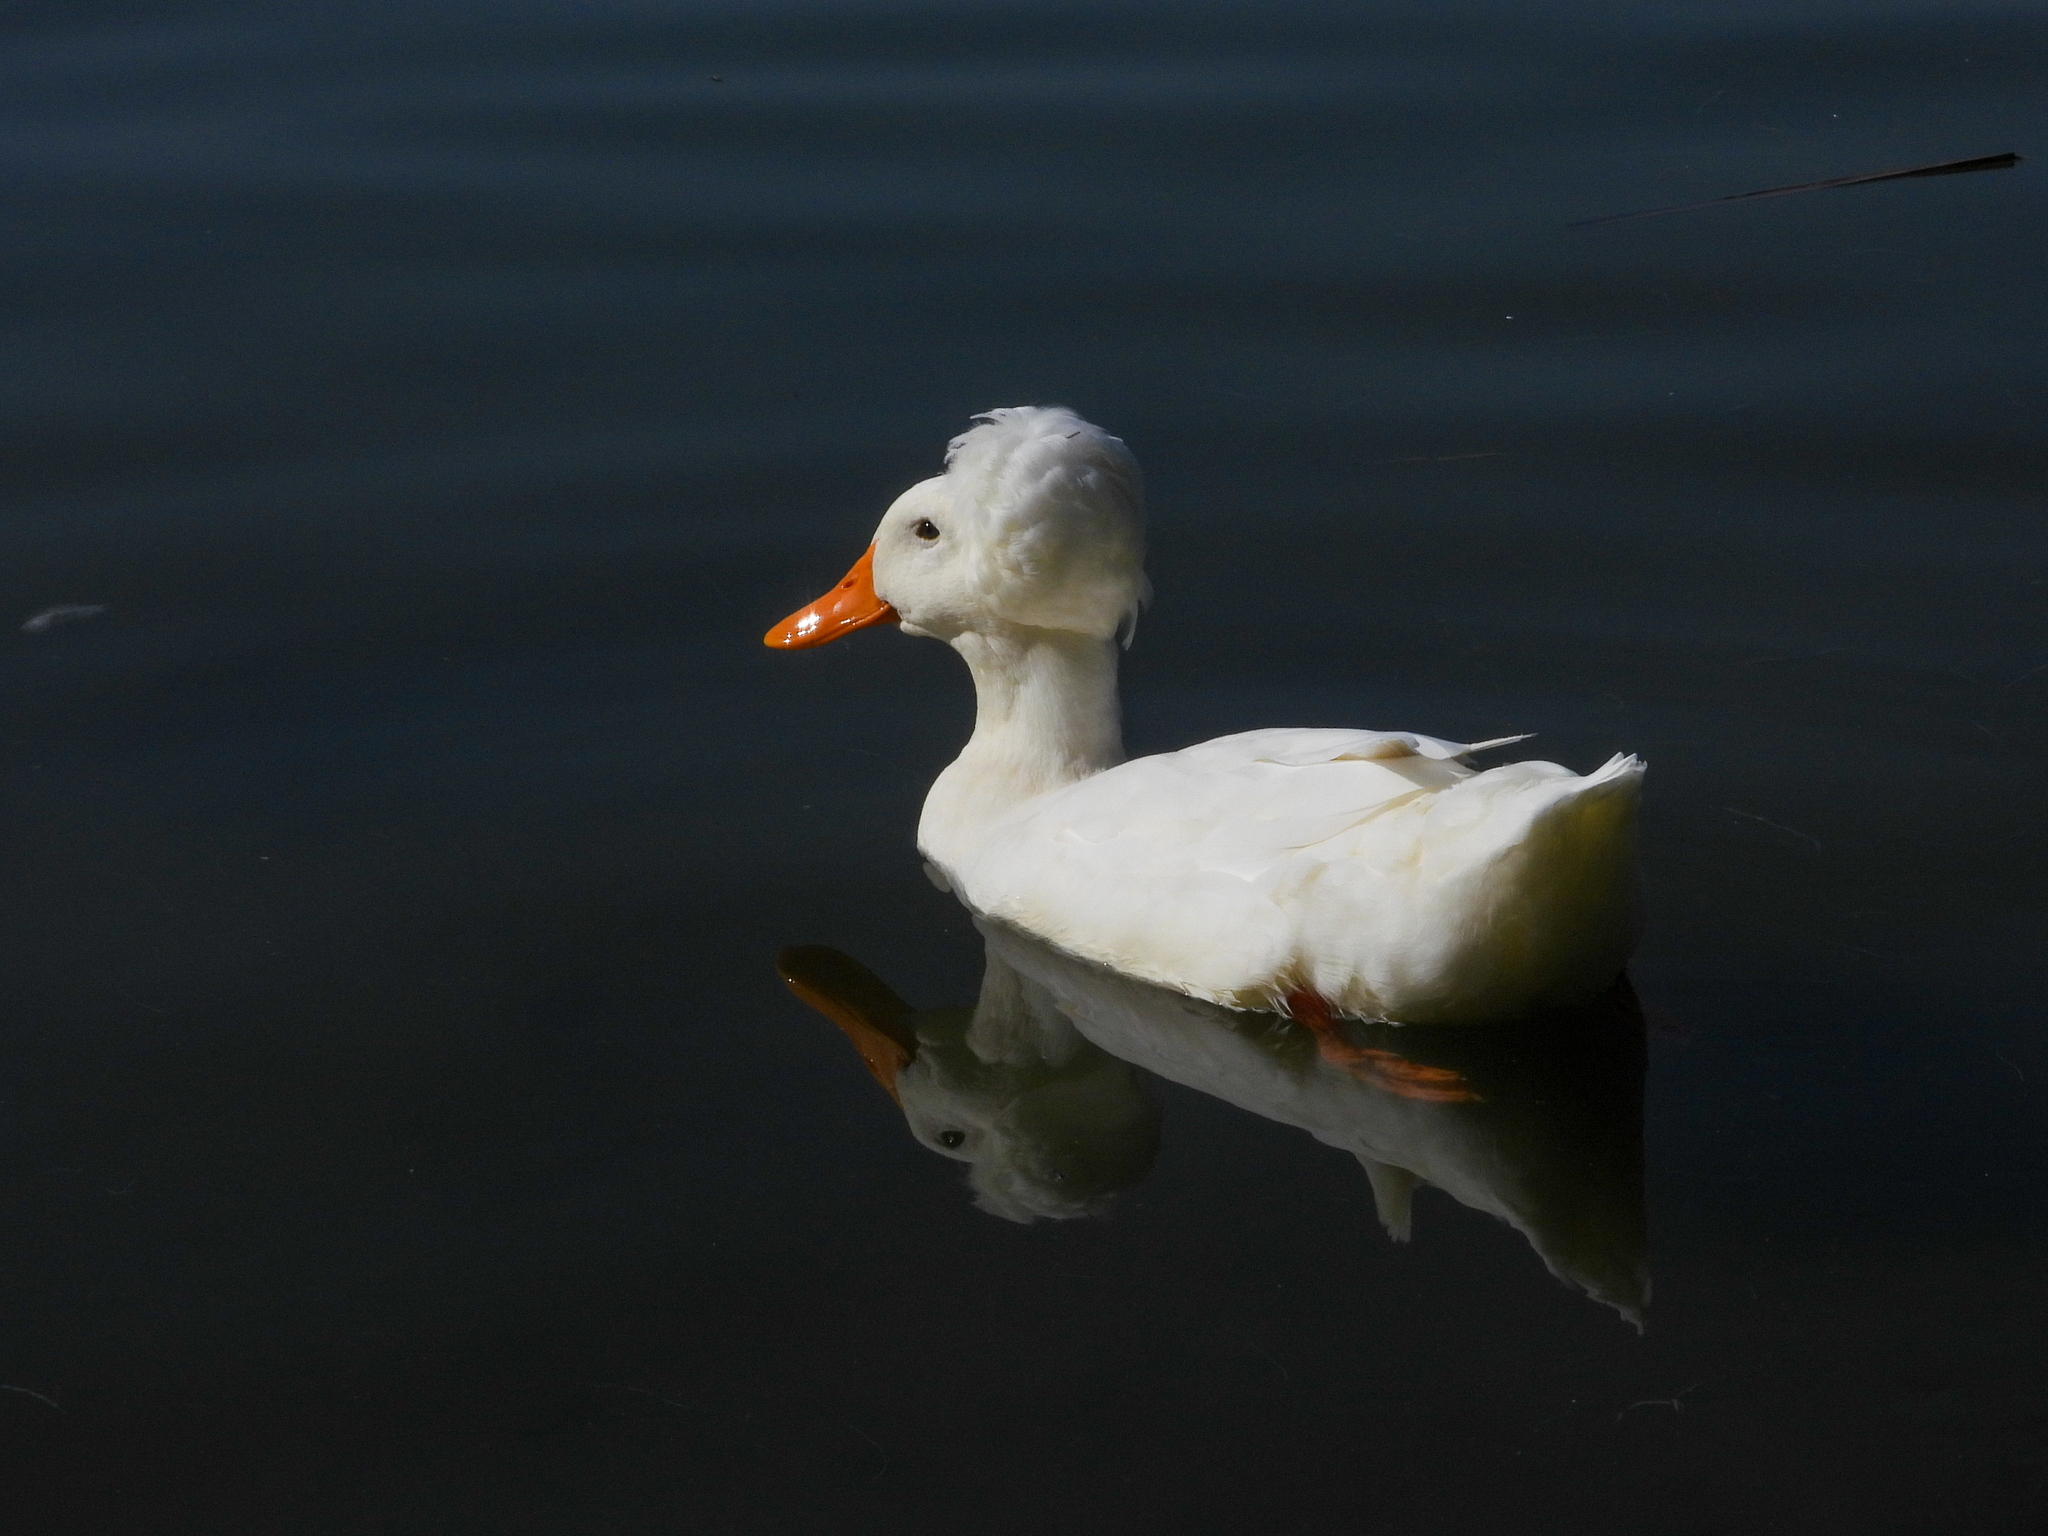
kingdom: Animalia
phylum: Chordata
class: Aves
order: Anseriformes
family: Anatidae
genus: Anas
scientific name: Anas platyrhynchos
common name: Mallard
